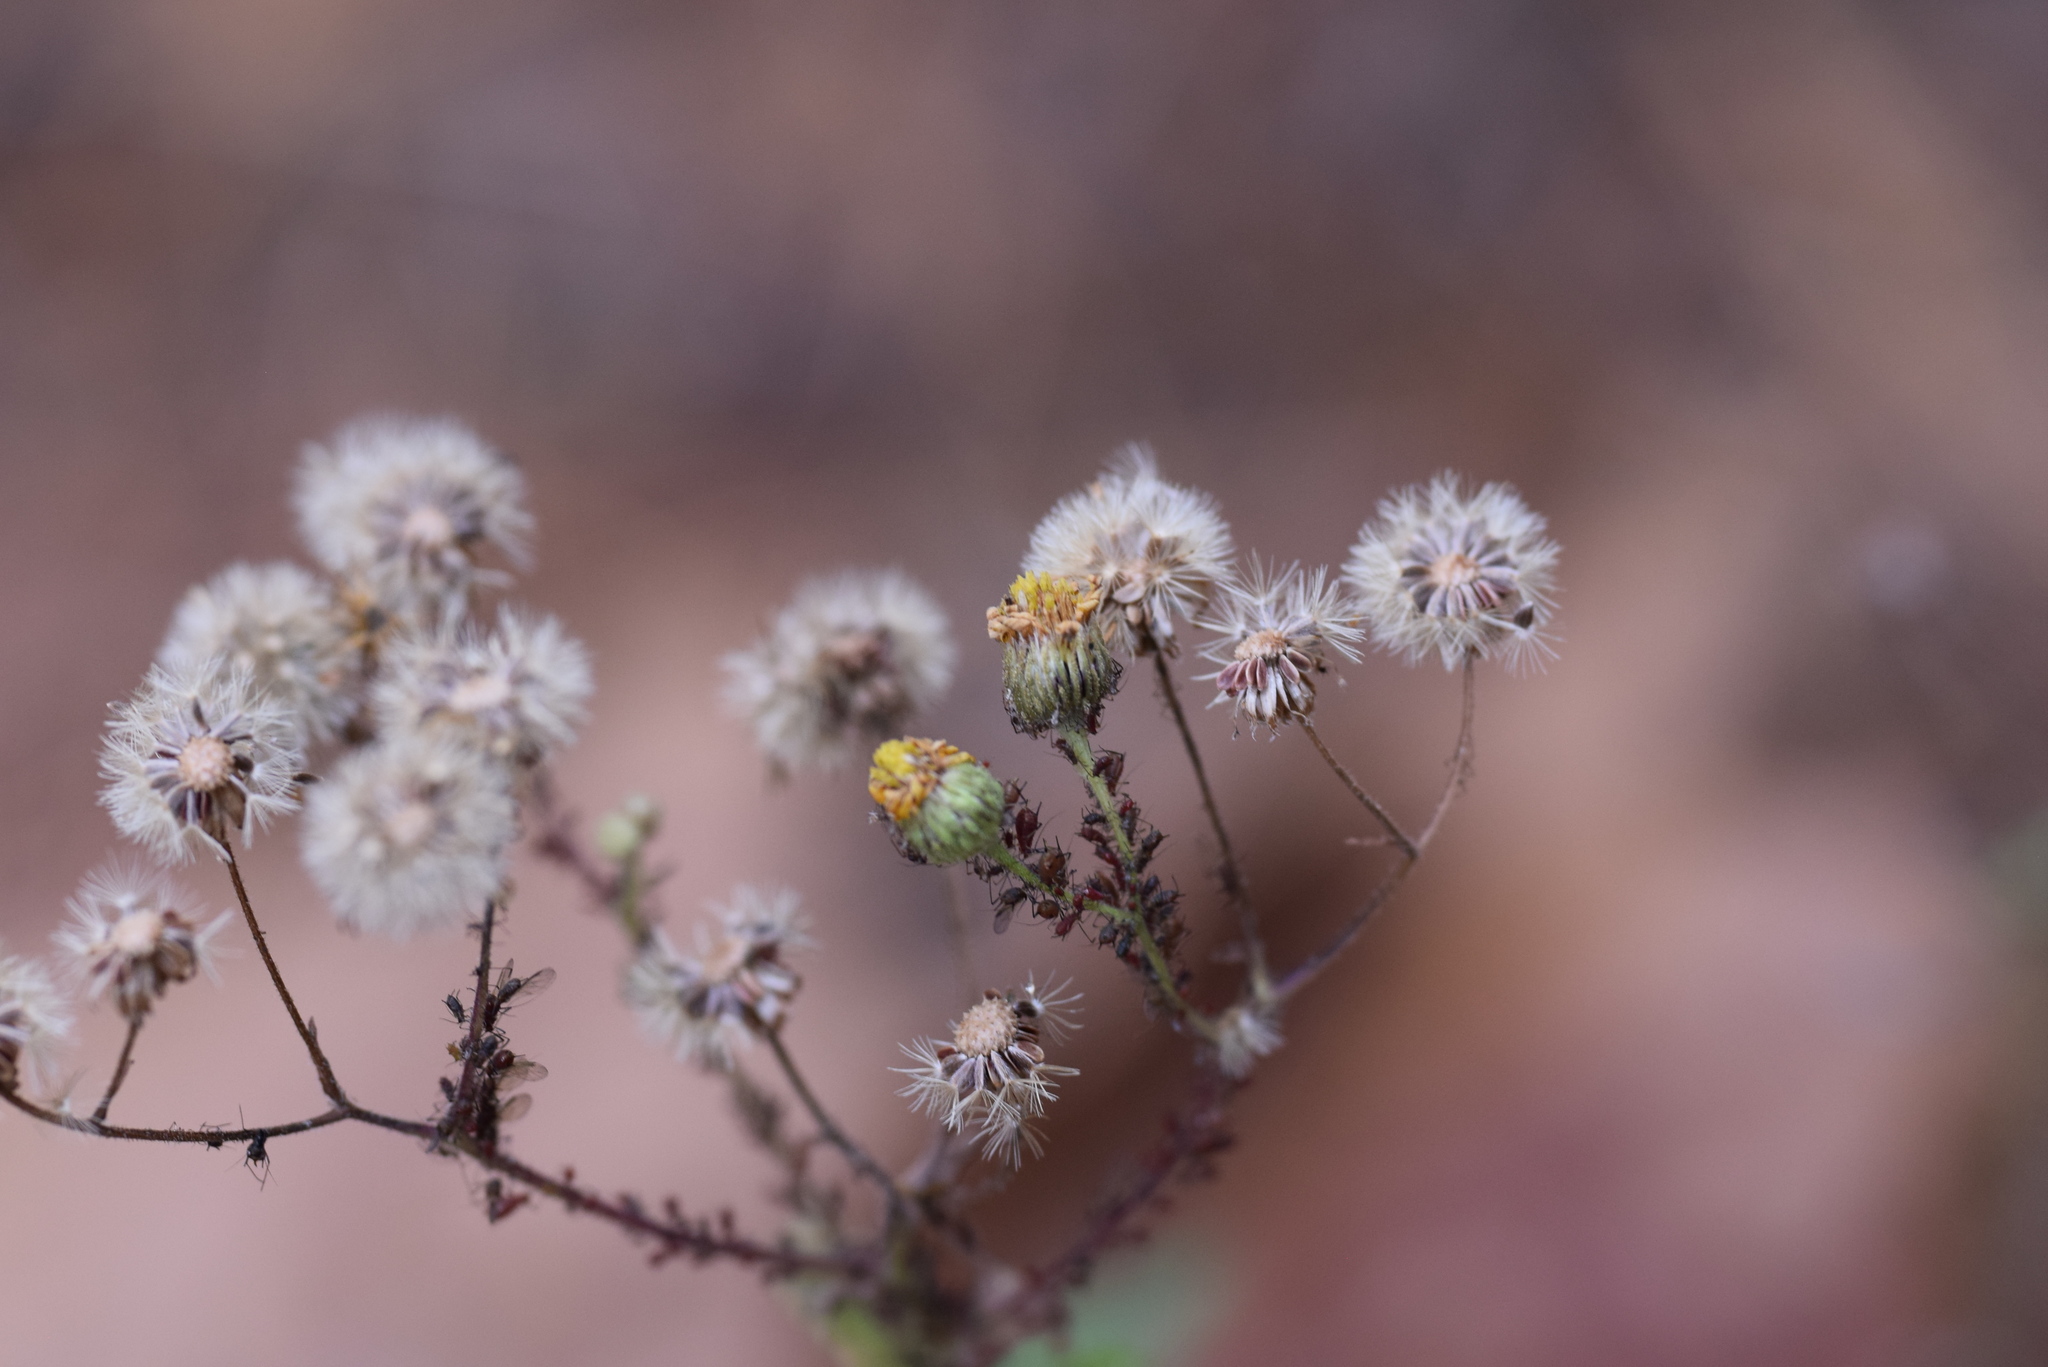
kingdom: Plantae
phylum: Tracheophyta
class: Magnoliopsida
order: Asterales
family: Asteraceae
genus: Heterotheca
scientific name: Heterotheca subaxillaris
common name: Camphorweed
